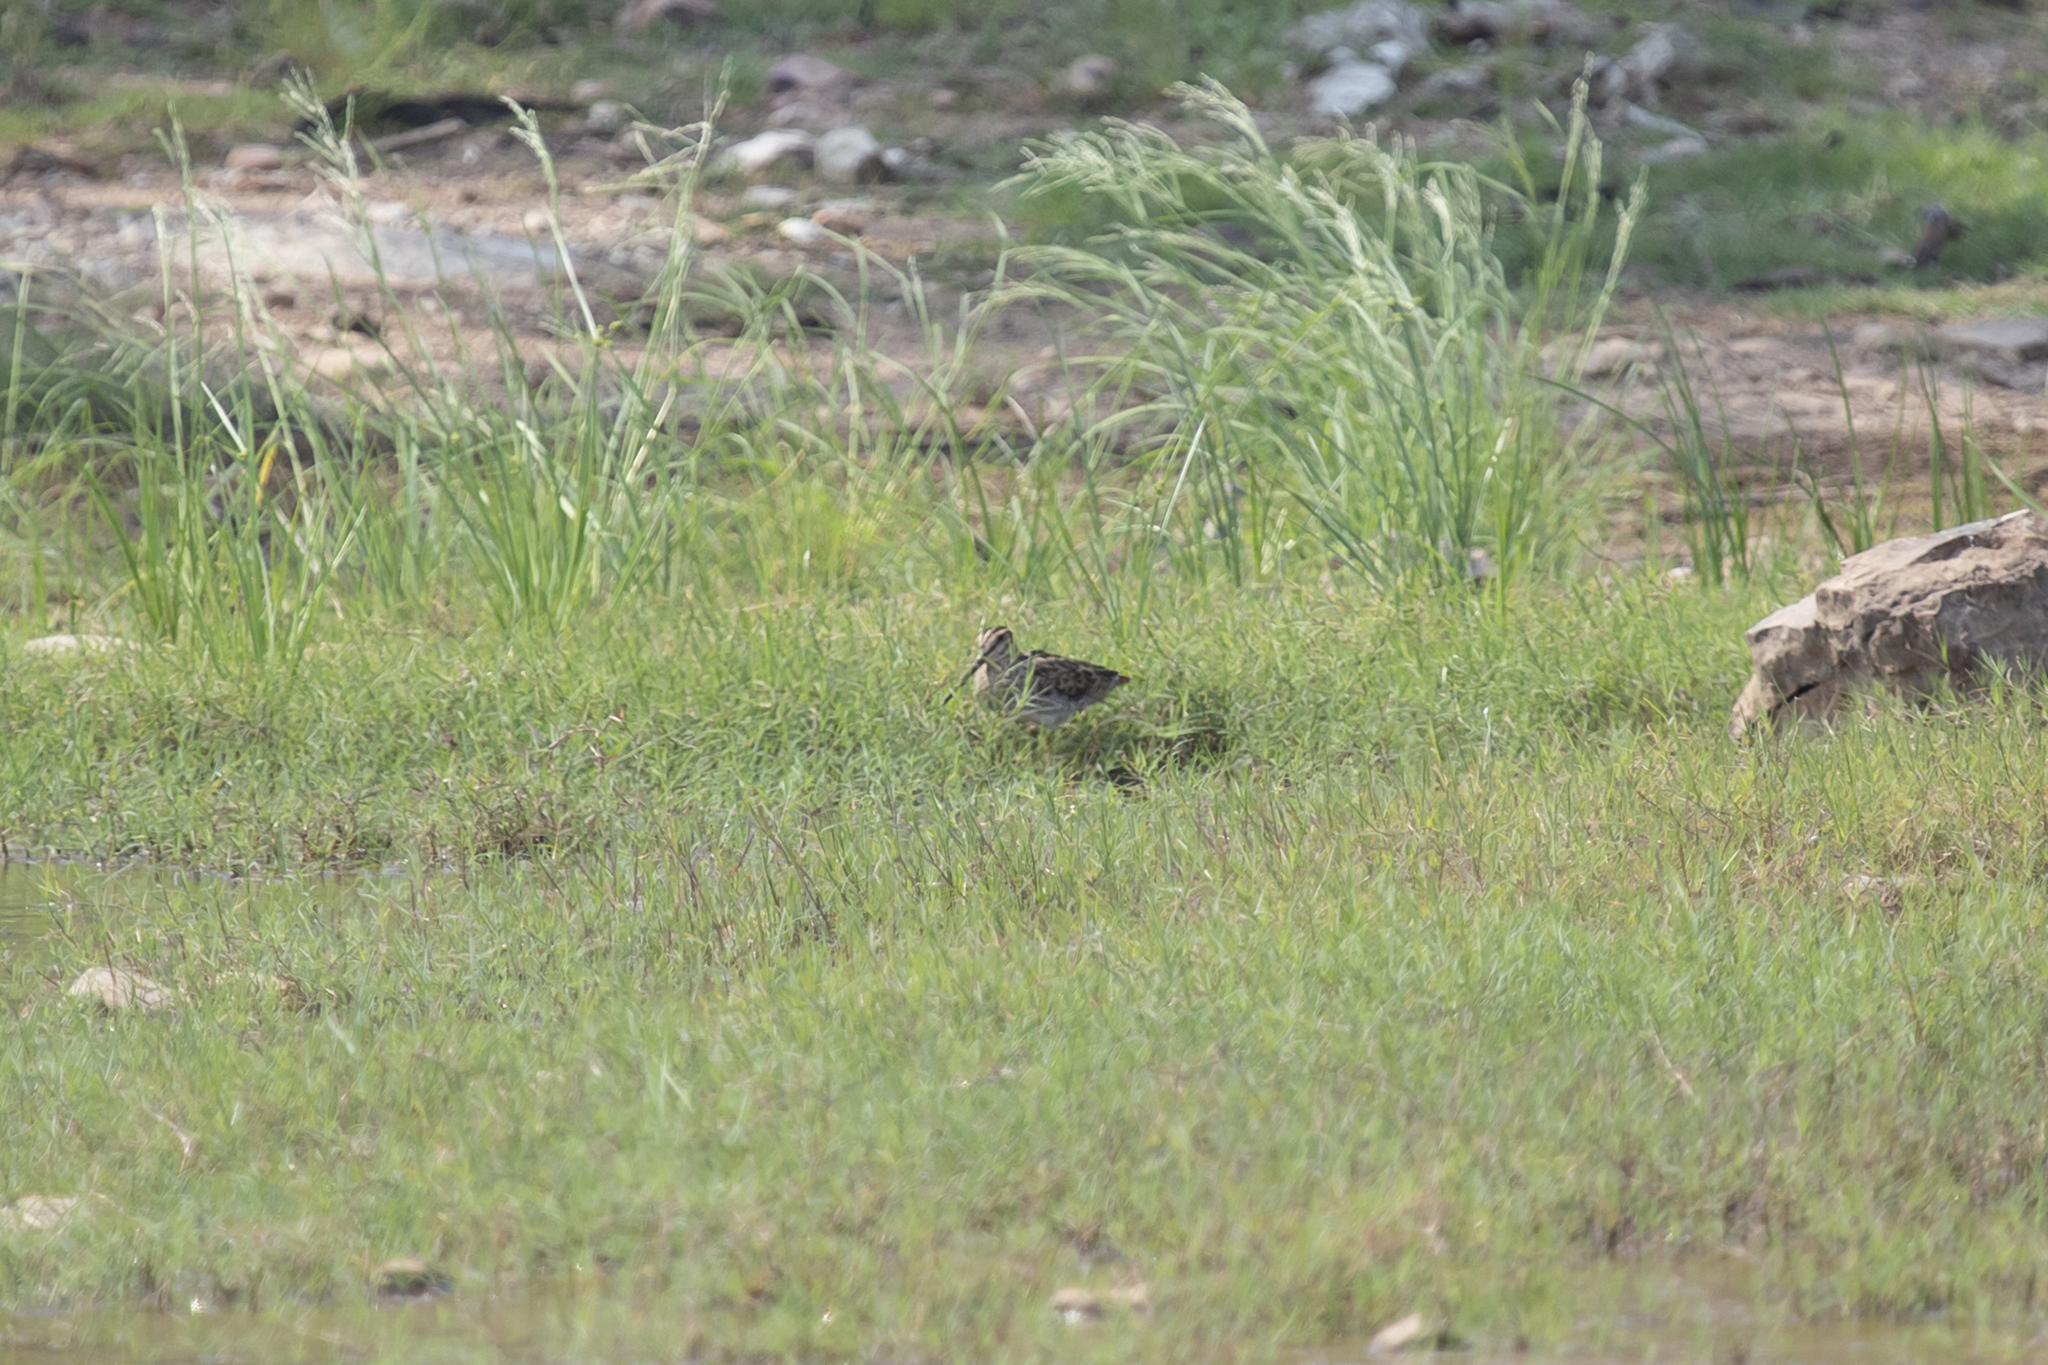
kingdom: Animalia
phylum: Chordata
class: Aves
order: Charadriiformes
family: Scolopacidae
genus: Gallinago
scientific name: Gallinago hardwickii
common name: Latham's snipe
